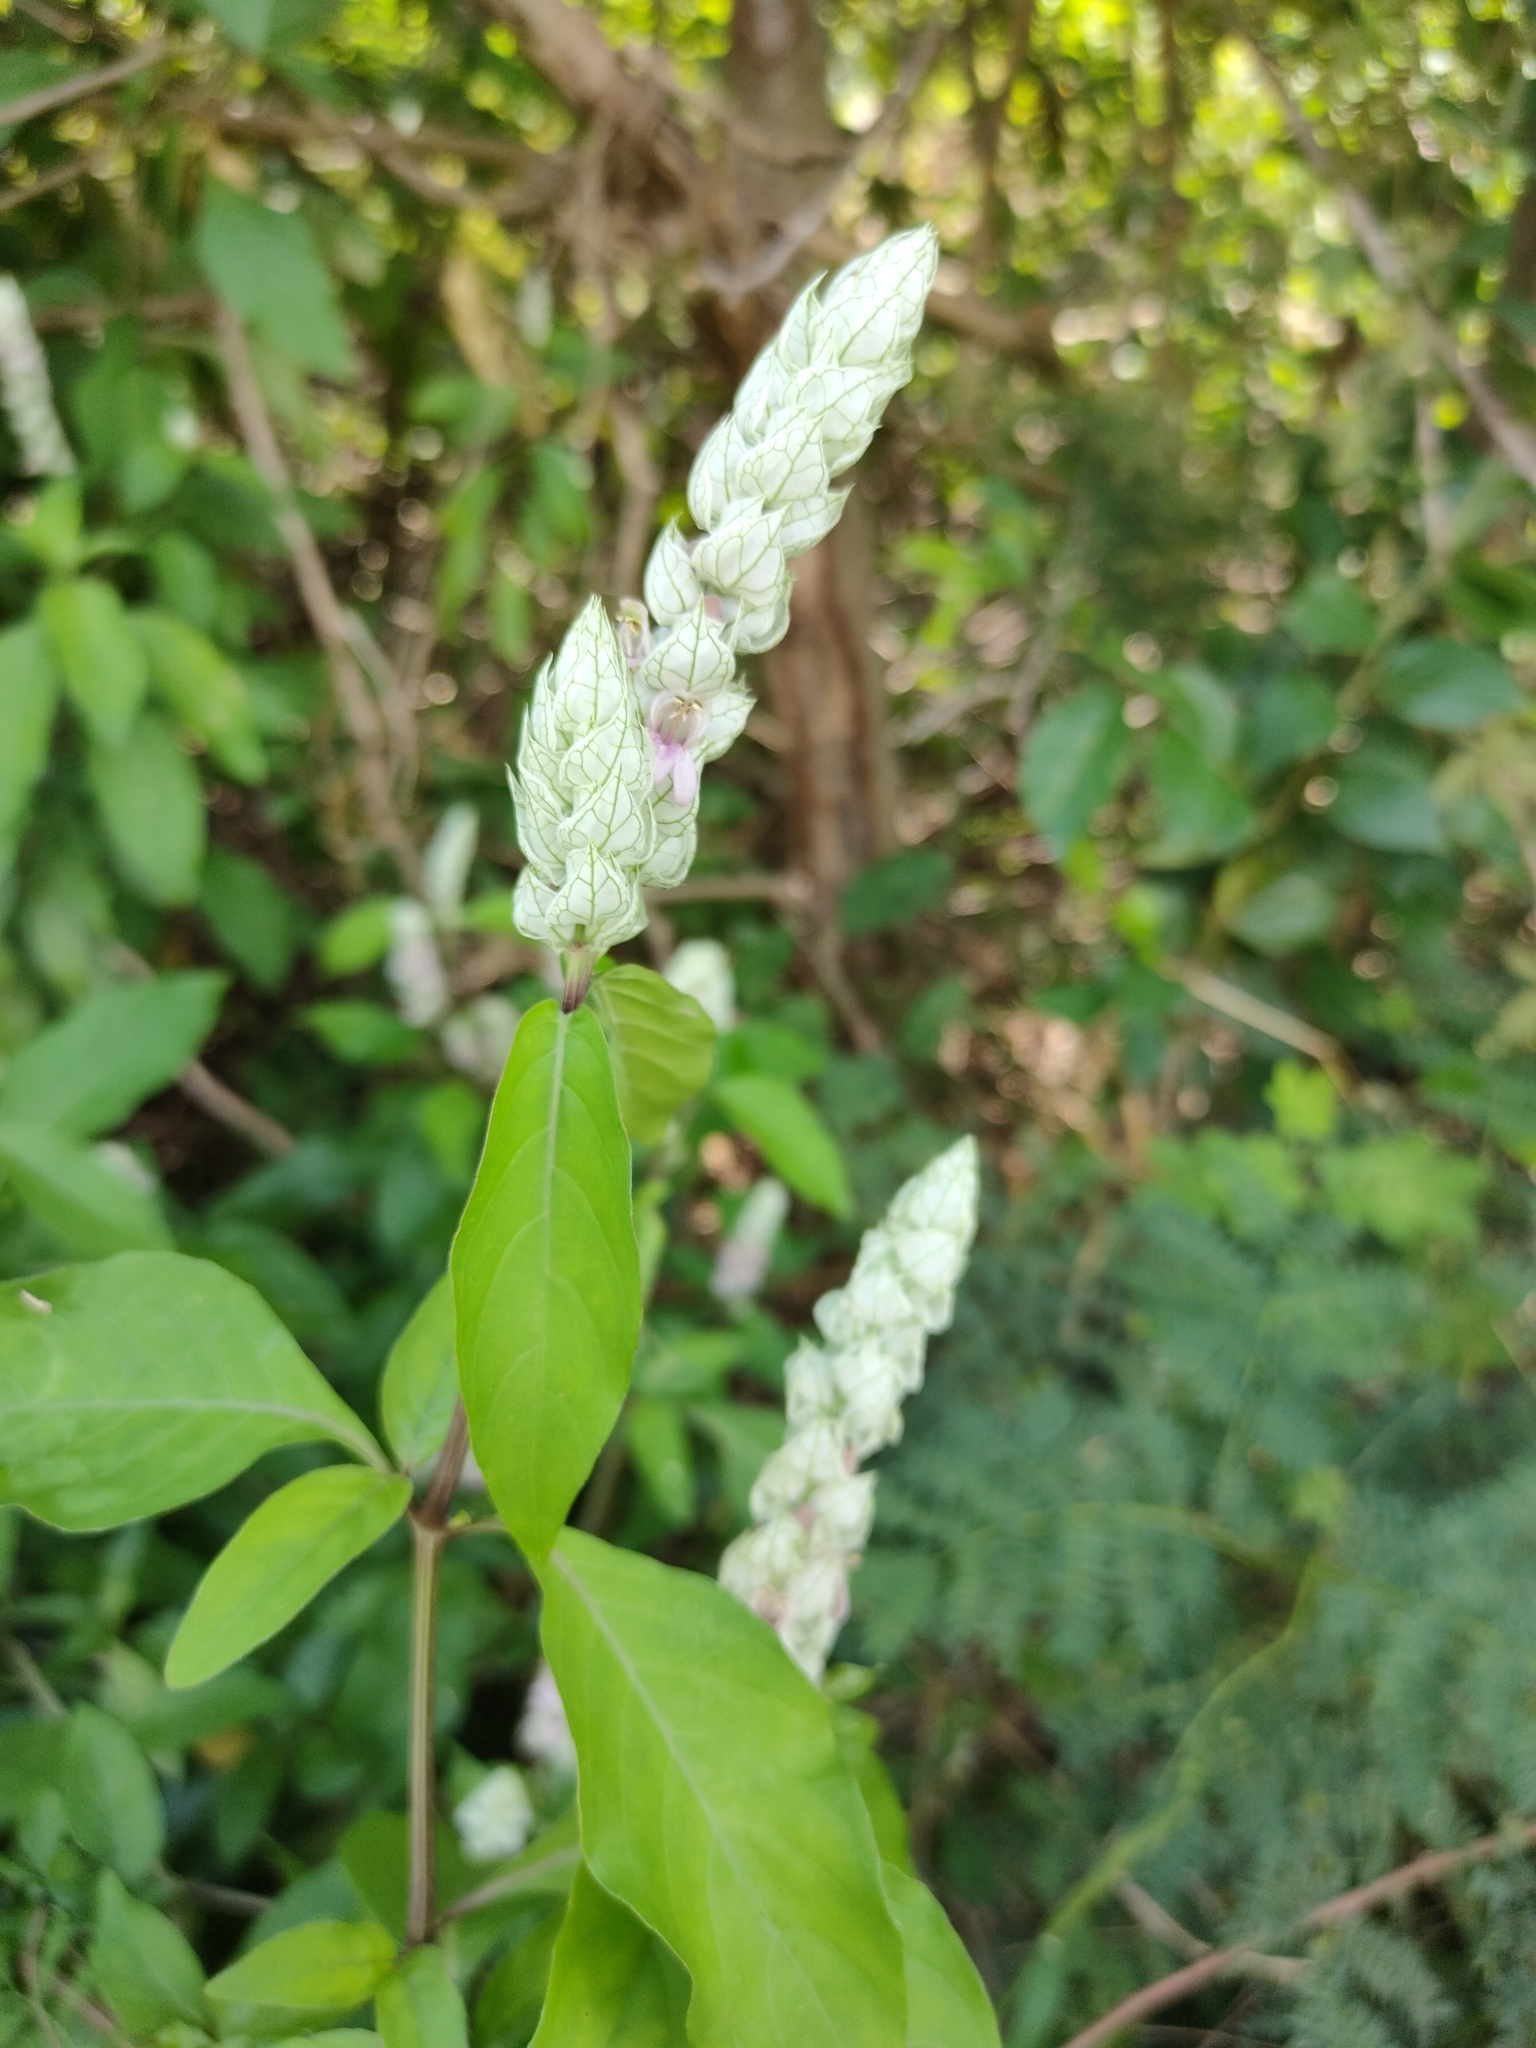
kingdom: Plantae
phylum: Tracheophyta
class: Magnoliopsida
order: Lamiales
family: Acanthaceae
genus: Justicia
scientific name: Justicia betonica
